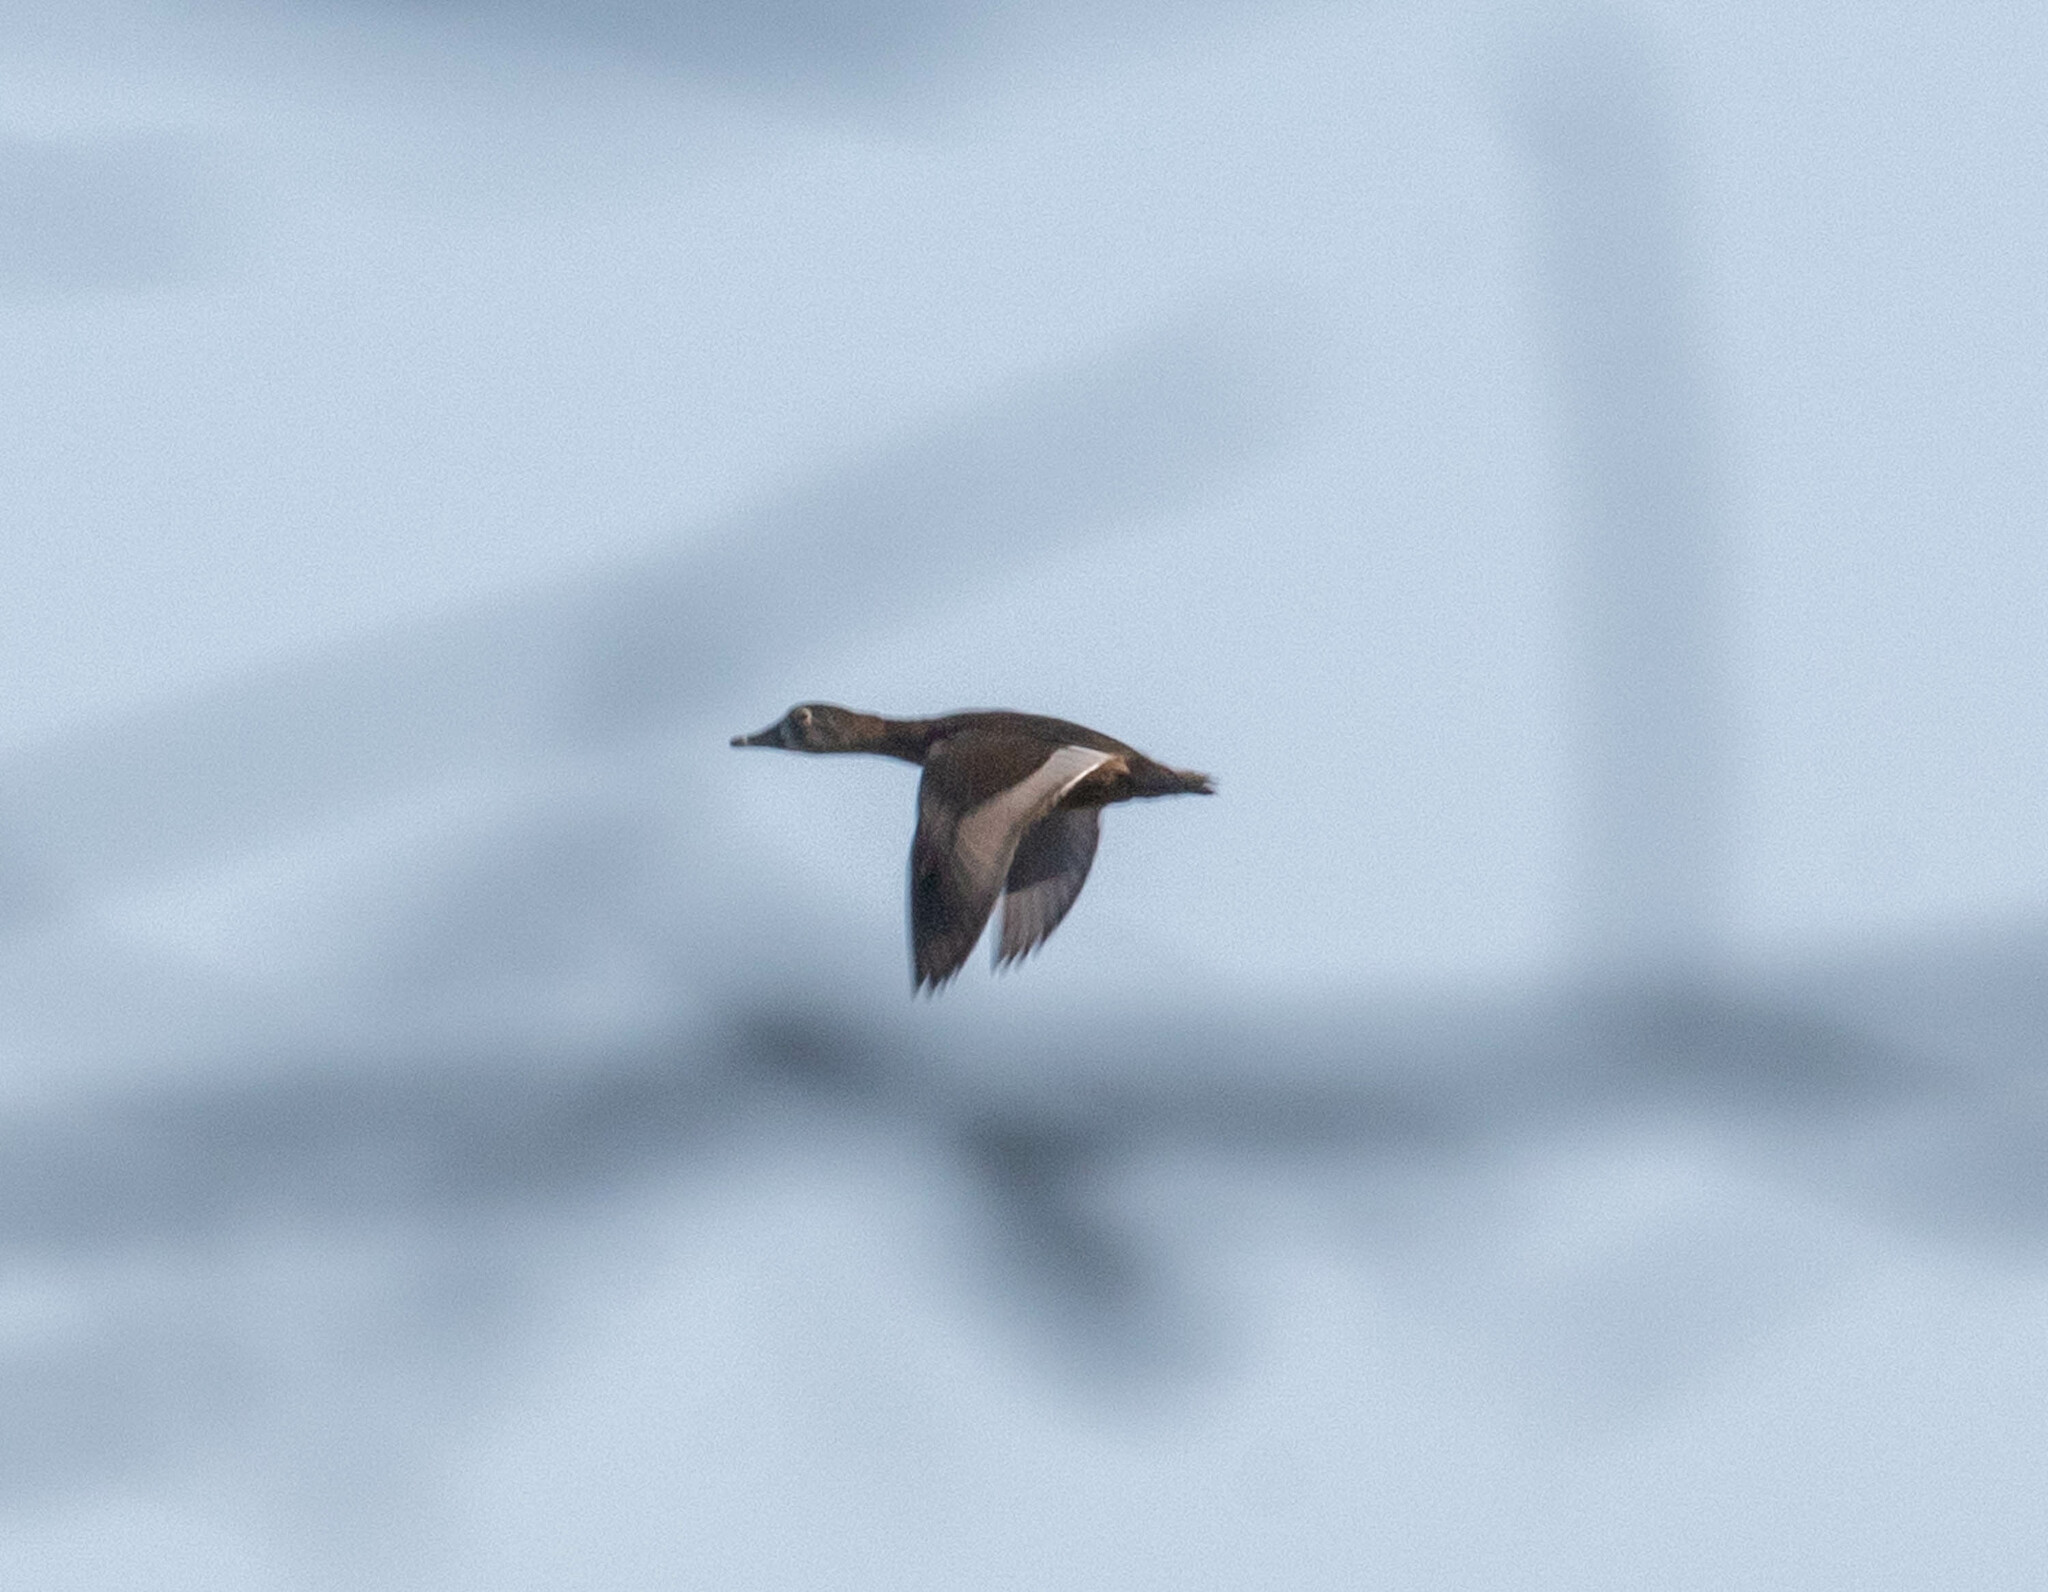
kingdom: Animalia
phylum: Chordata
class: Aves
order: Anseriformes
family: Anatidae
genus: Spatula
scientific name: Spatula discors
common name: Blue-winged teal
